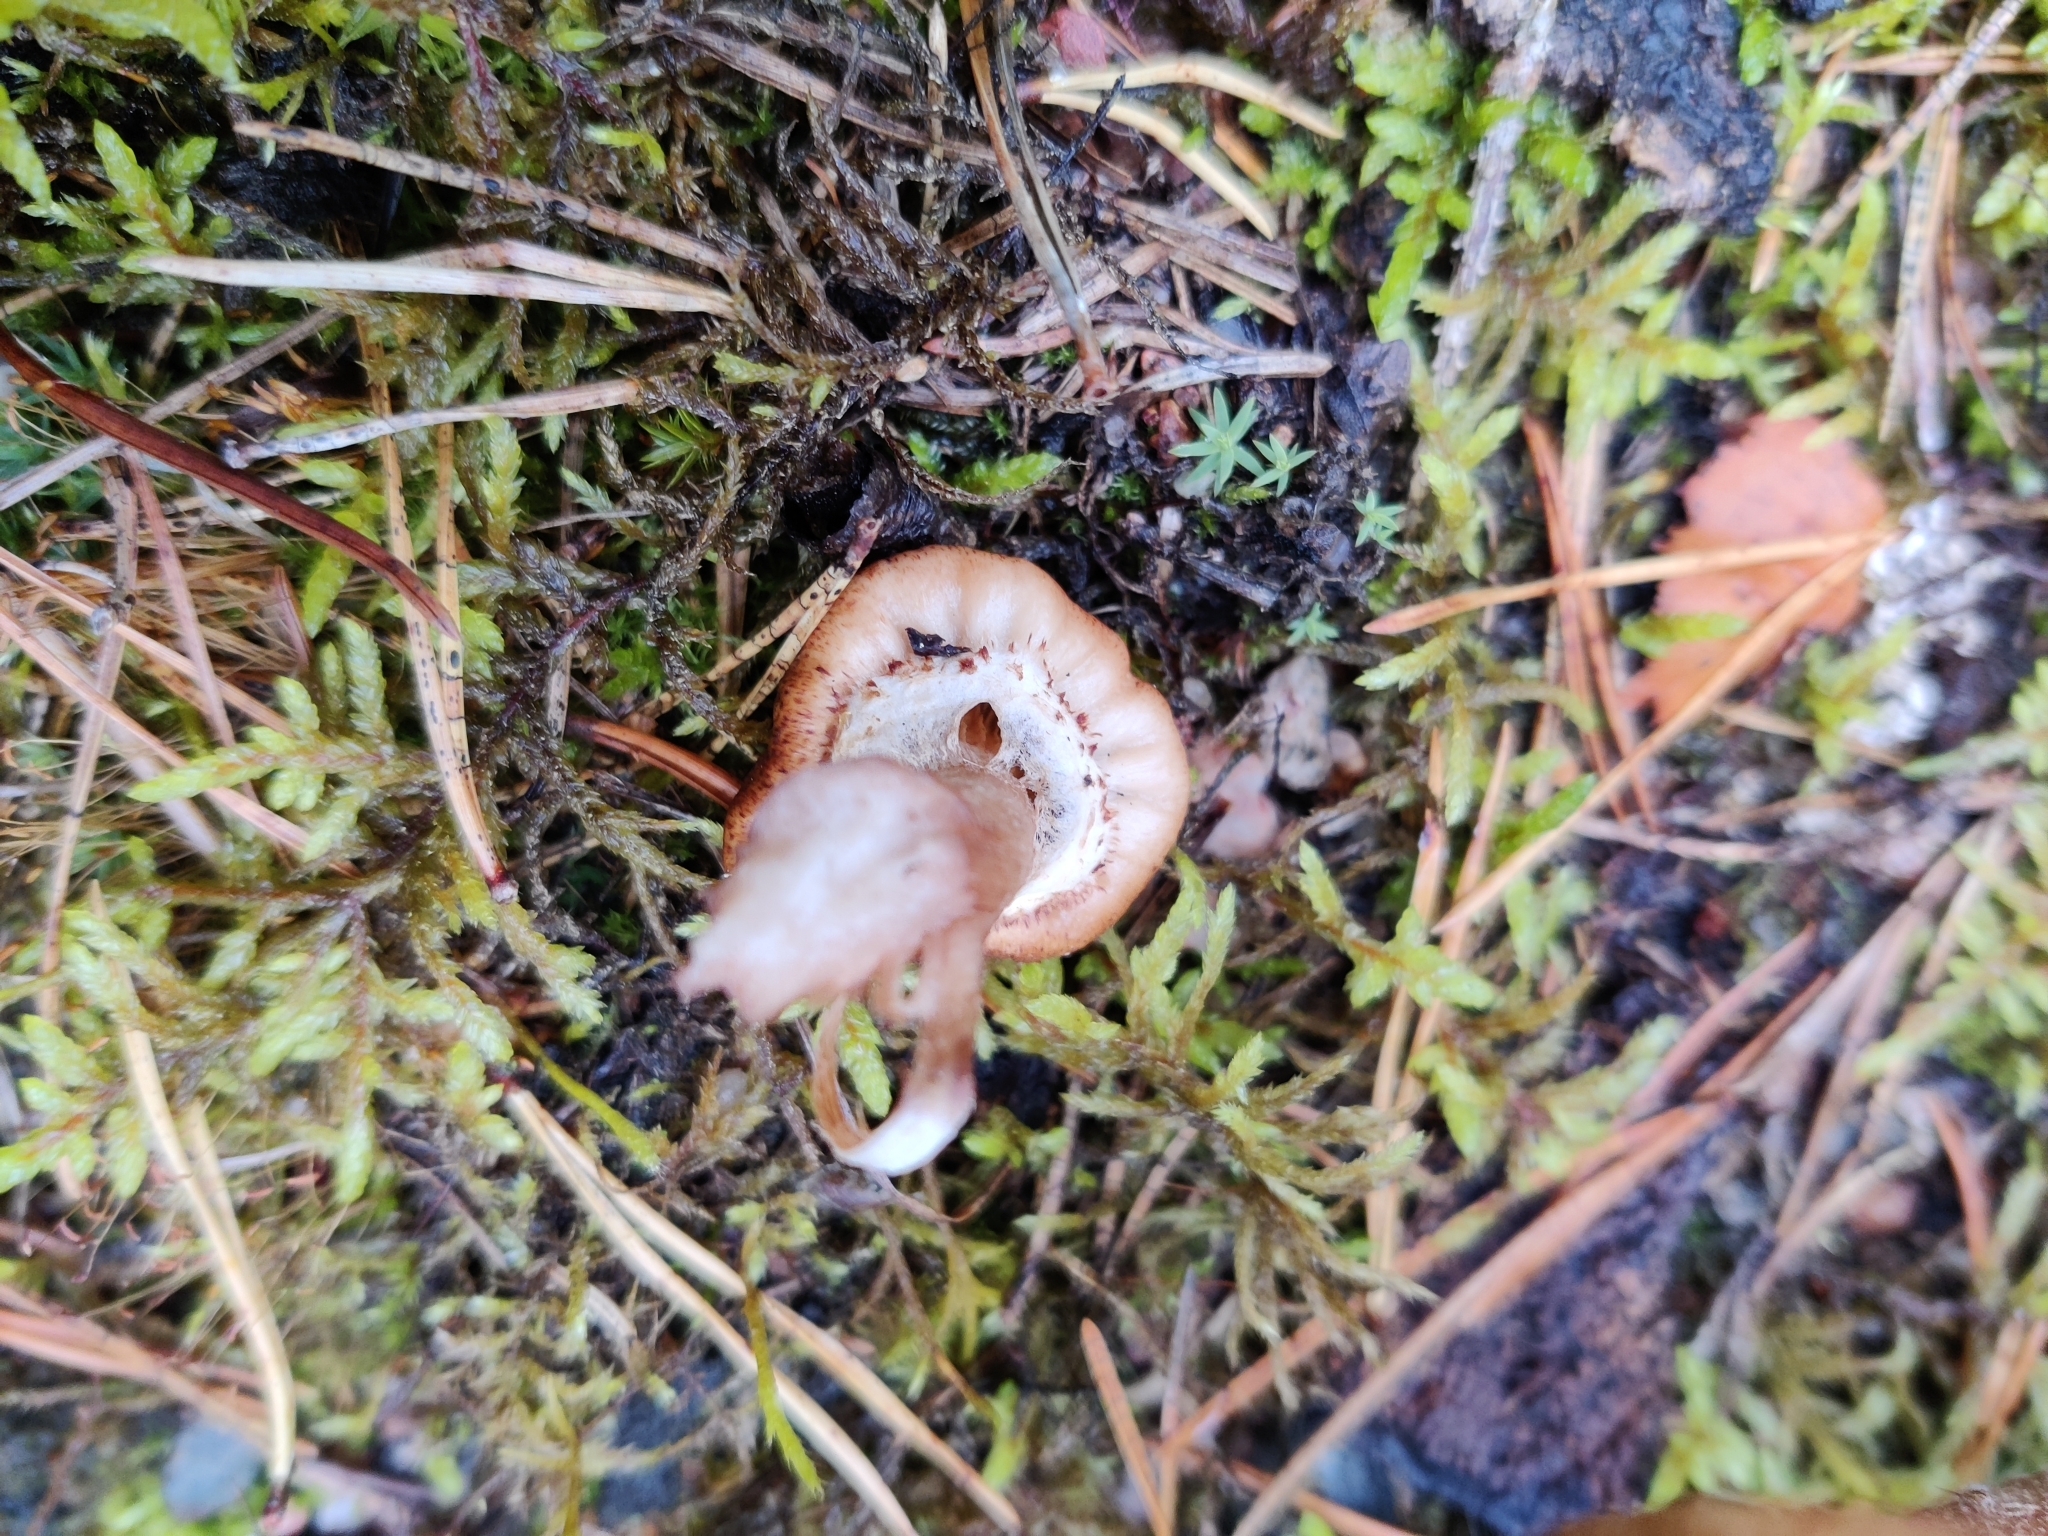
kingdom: Fungi
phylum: Basidiomycota
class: Agaricomycetes
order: Agaricales
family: Physalacriaceae
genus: Armillaria
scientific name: Armillaria borealis
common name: Northern honey fungus
